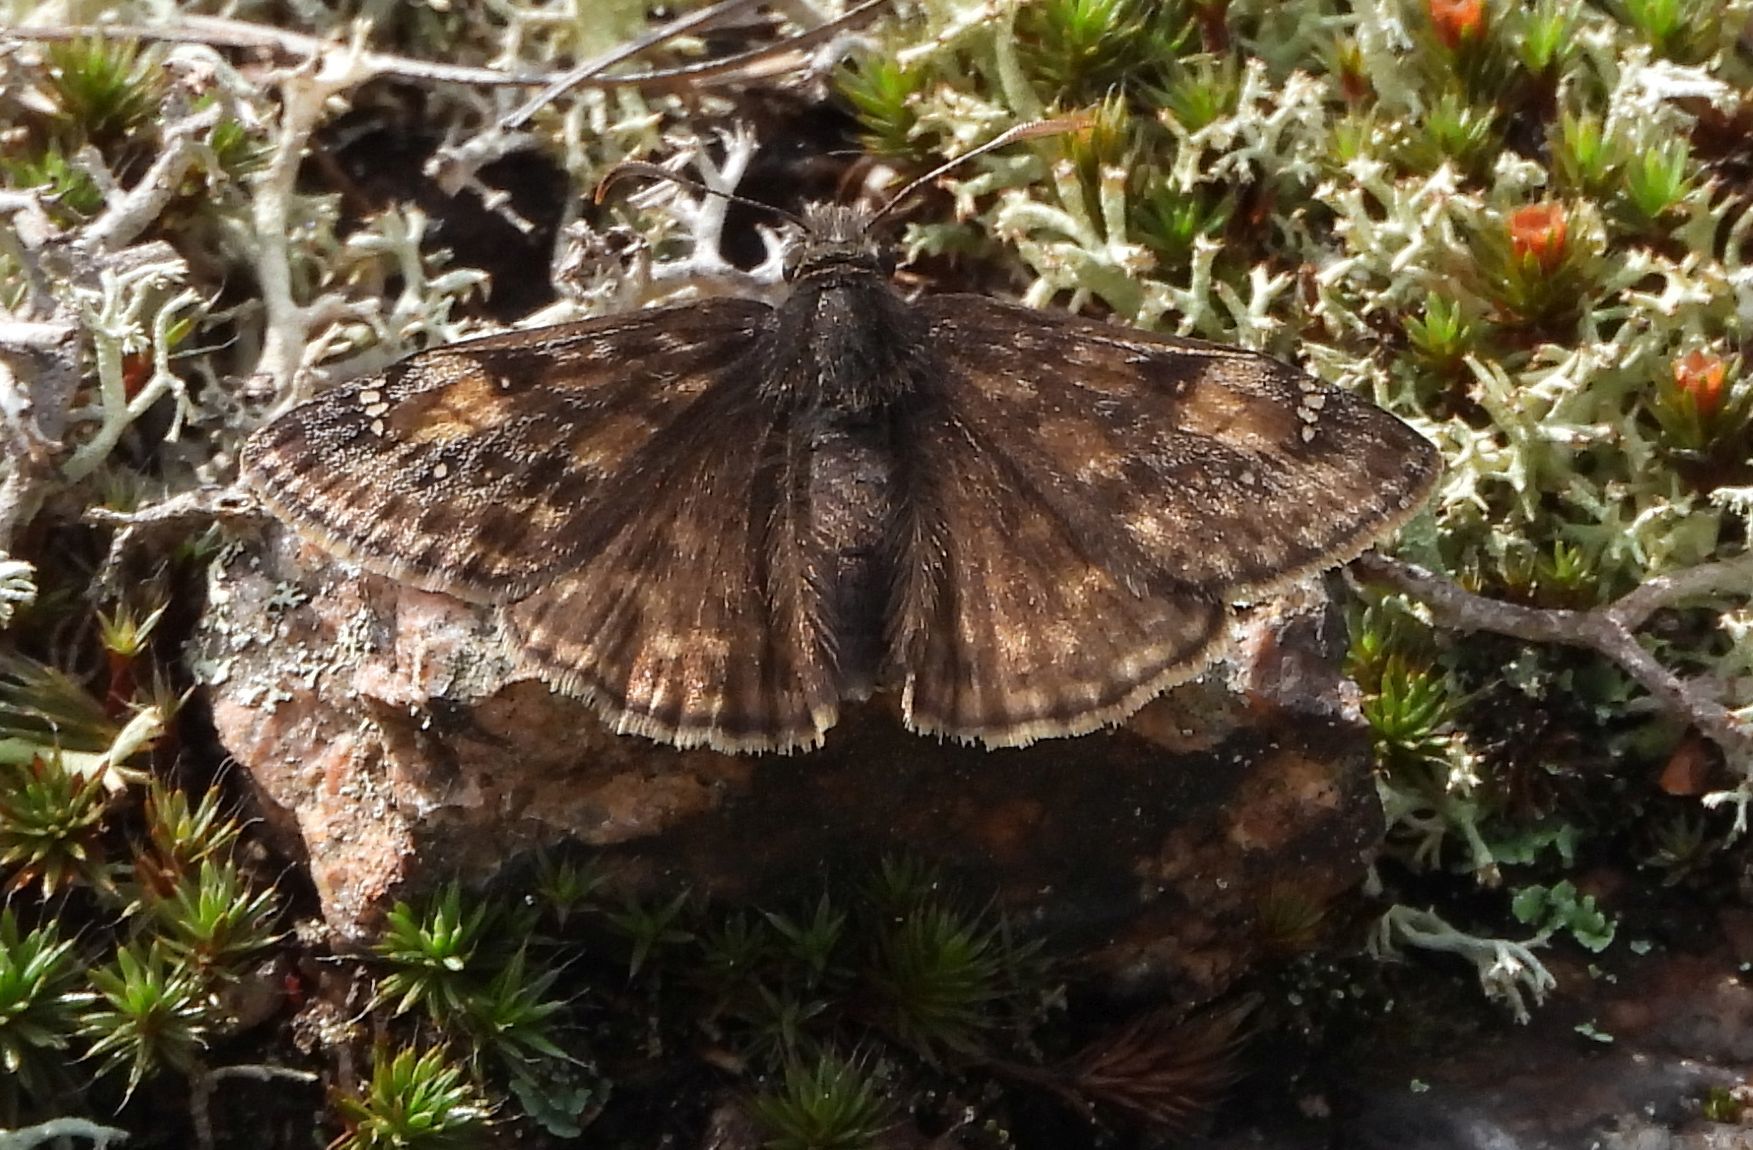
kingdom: Animalia
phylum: Arthropoda
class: Insecta
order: Lepidoptera
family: Hesperiidae
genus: Erynnis
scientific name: Erynnis juvenalis
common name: Juvenal's duskywing
